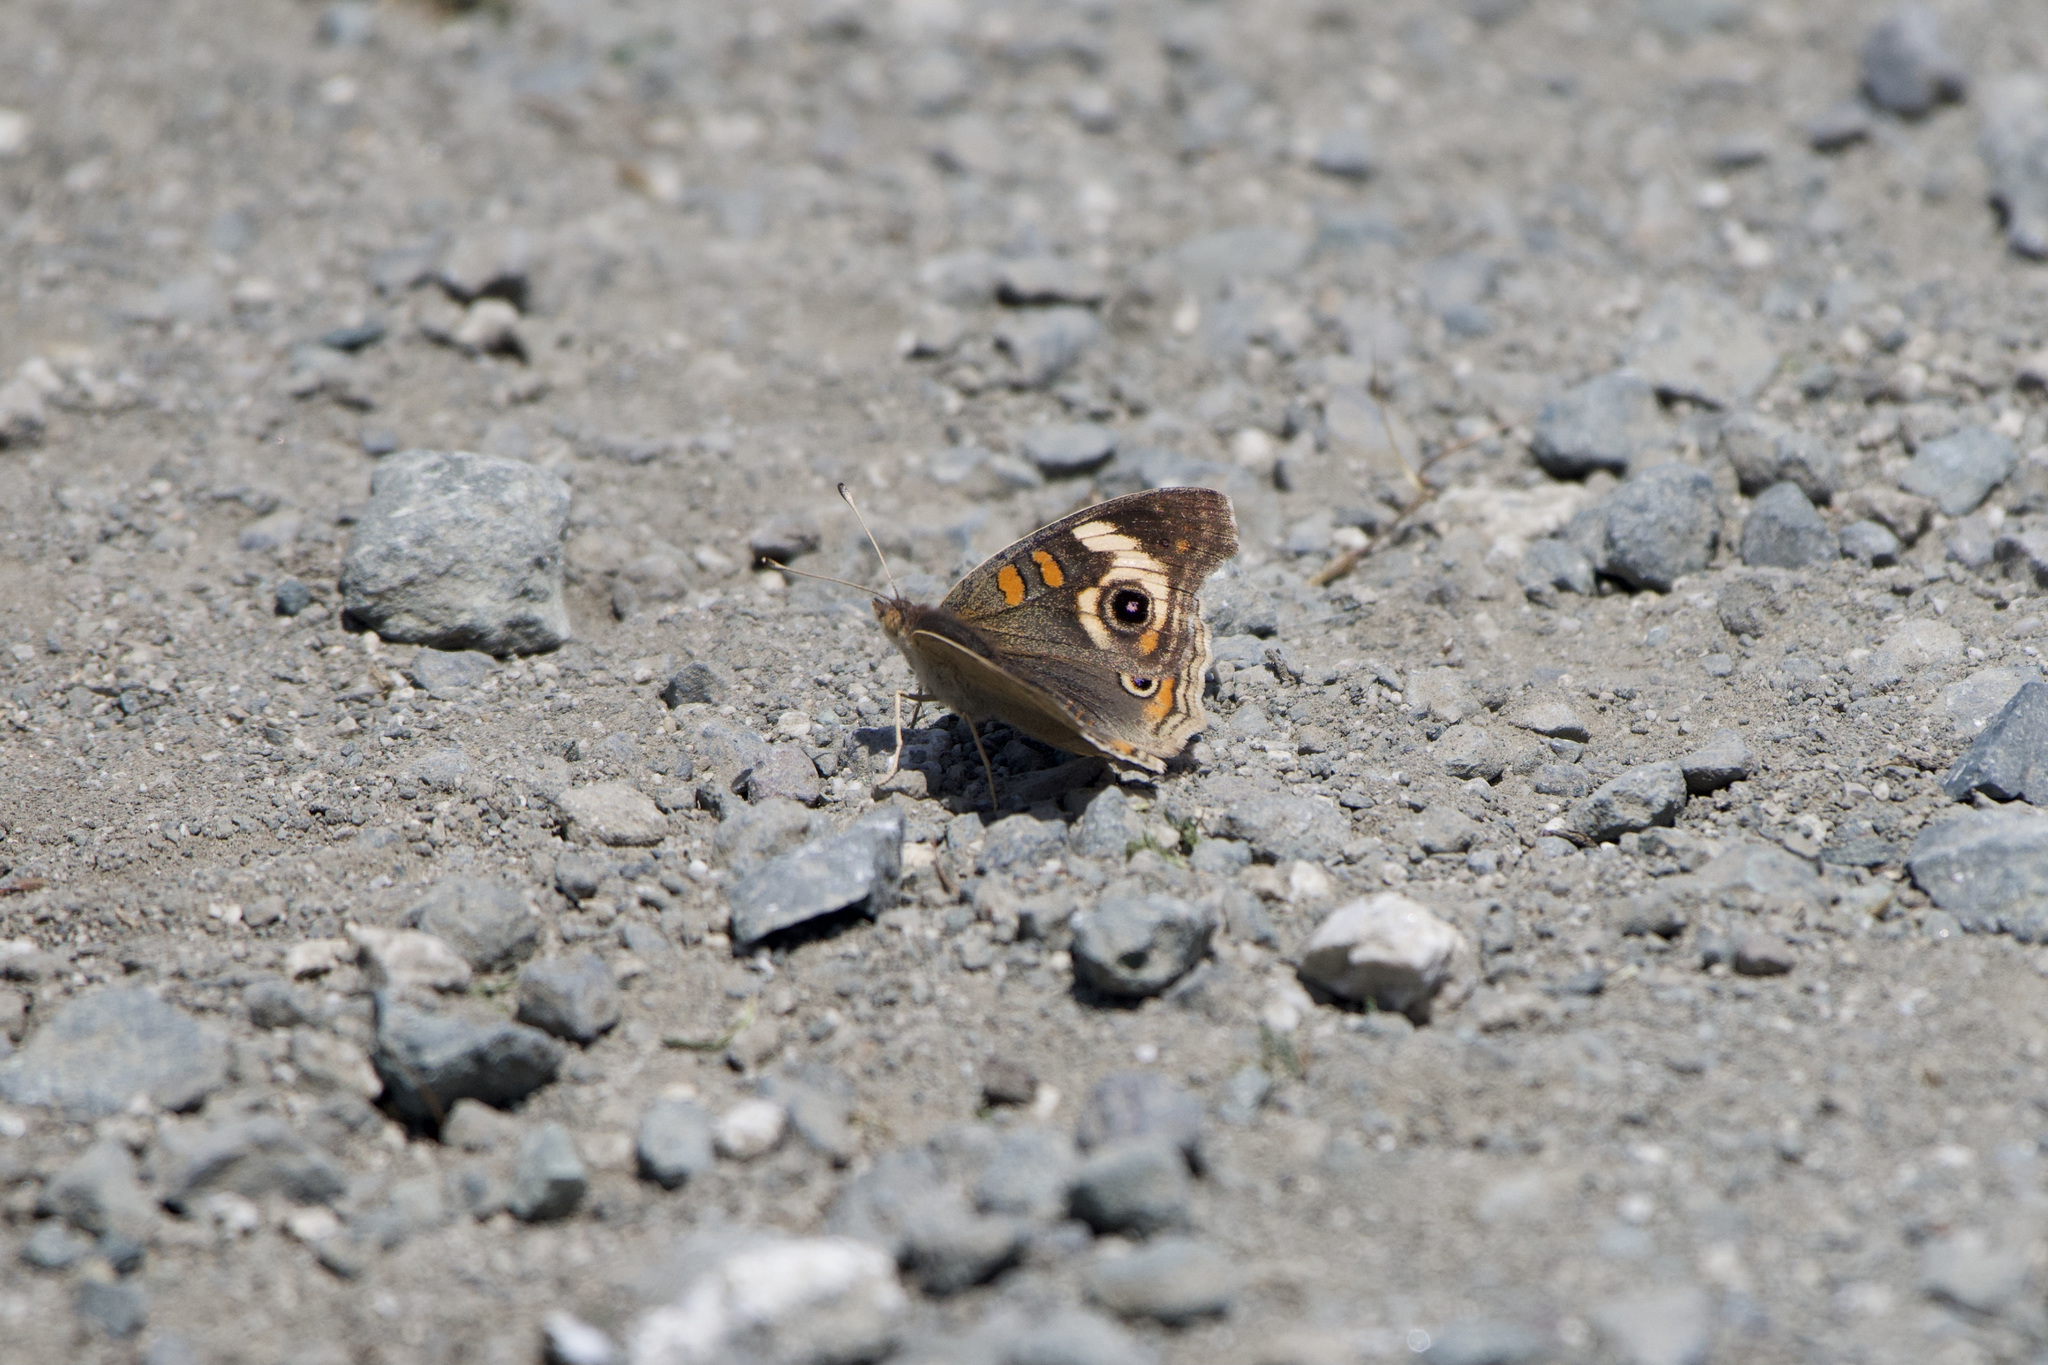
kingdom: Animalia
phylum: Arthropoda
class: Insecta
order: Lepidoptera
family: Nymphalidae
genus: Junonia
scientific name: Junonia grisea
